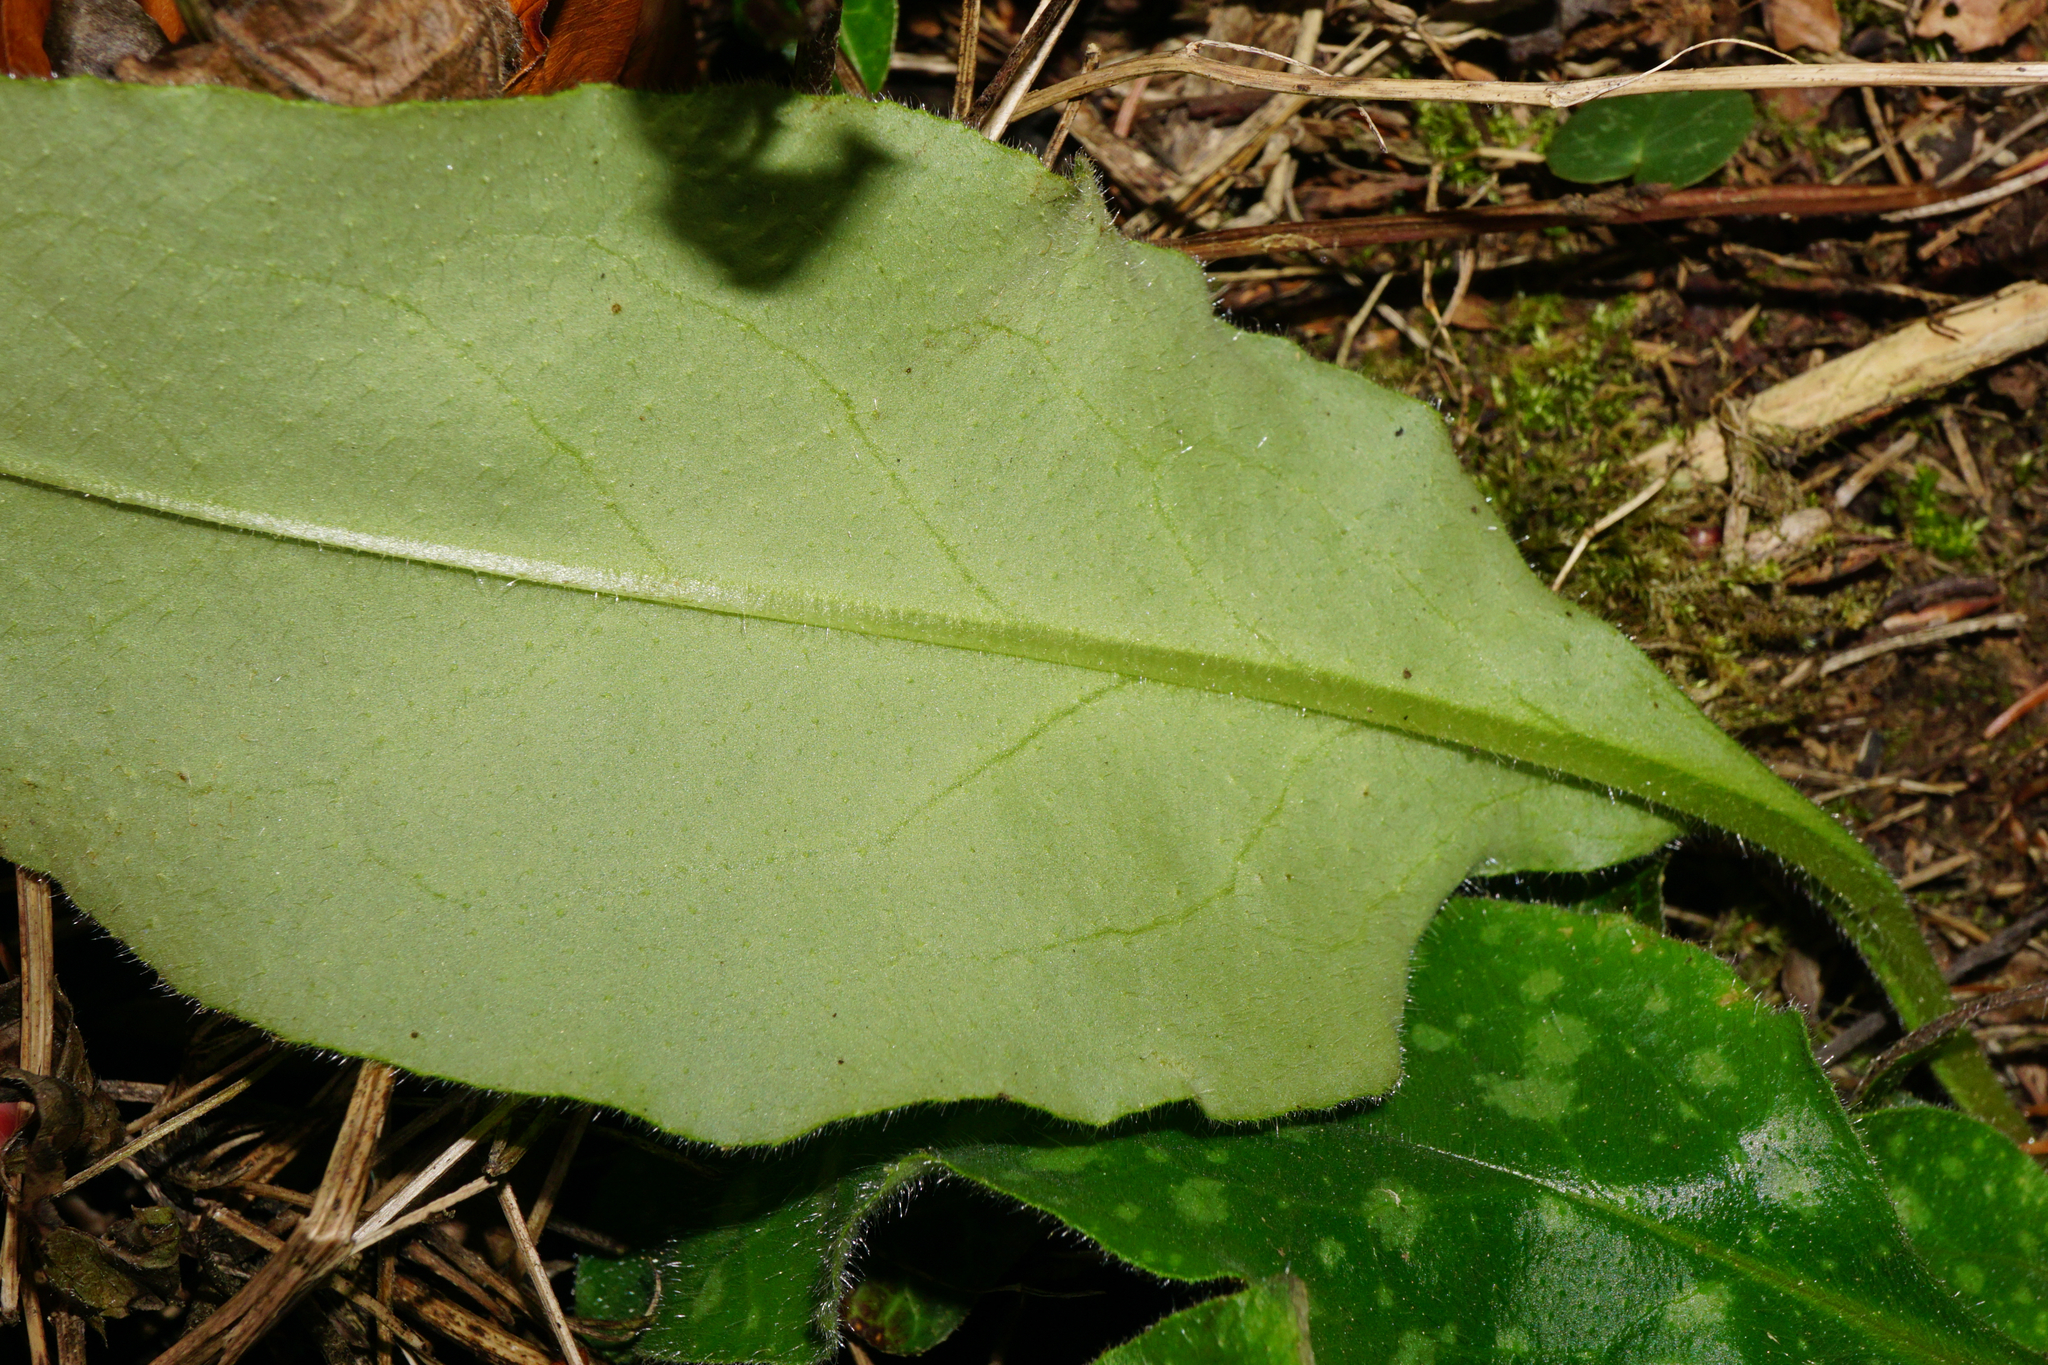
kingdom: Plantae
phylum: Tracheophyta
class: Magnoliopsida
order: Boraginales
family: Boraginaceae
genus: Pulmonaria
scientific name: Pulmonaria officinalis
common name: Lungwort
